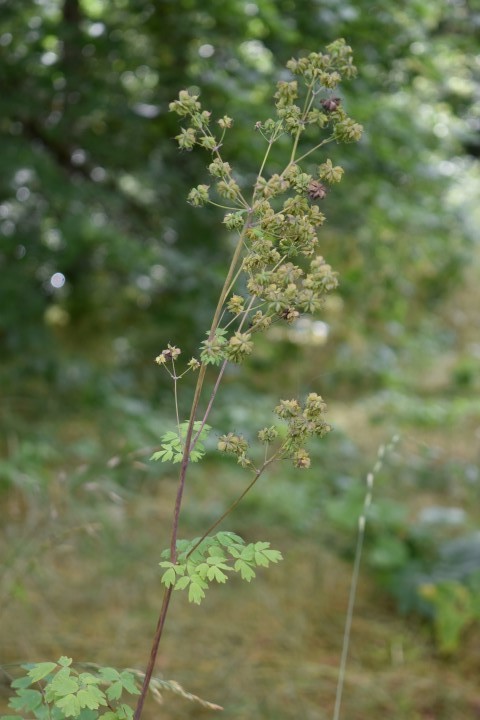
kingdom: Plantae
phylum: Tracheophyta
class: Magnoliopsida
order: Ranunculales
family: Ranunculaceae
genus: Thalictrum
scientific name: Thalictrum fendleri
